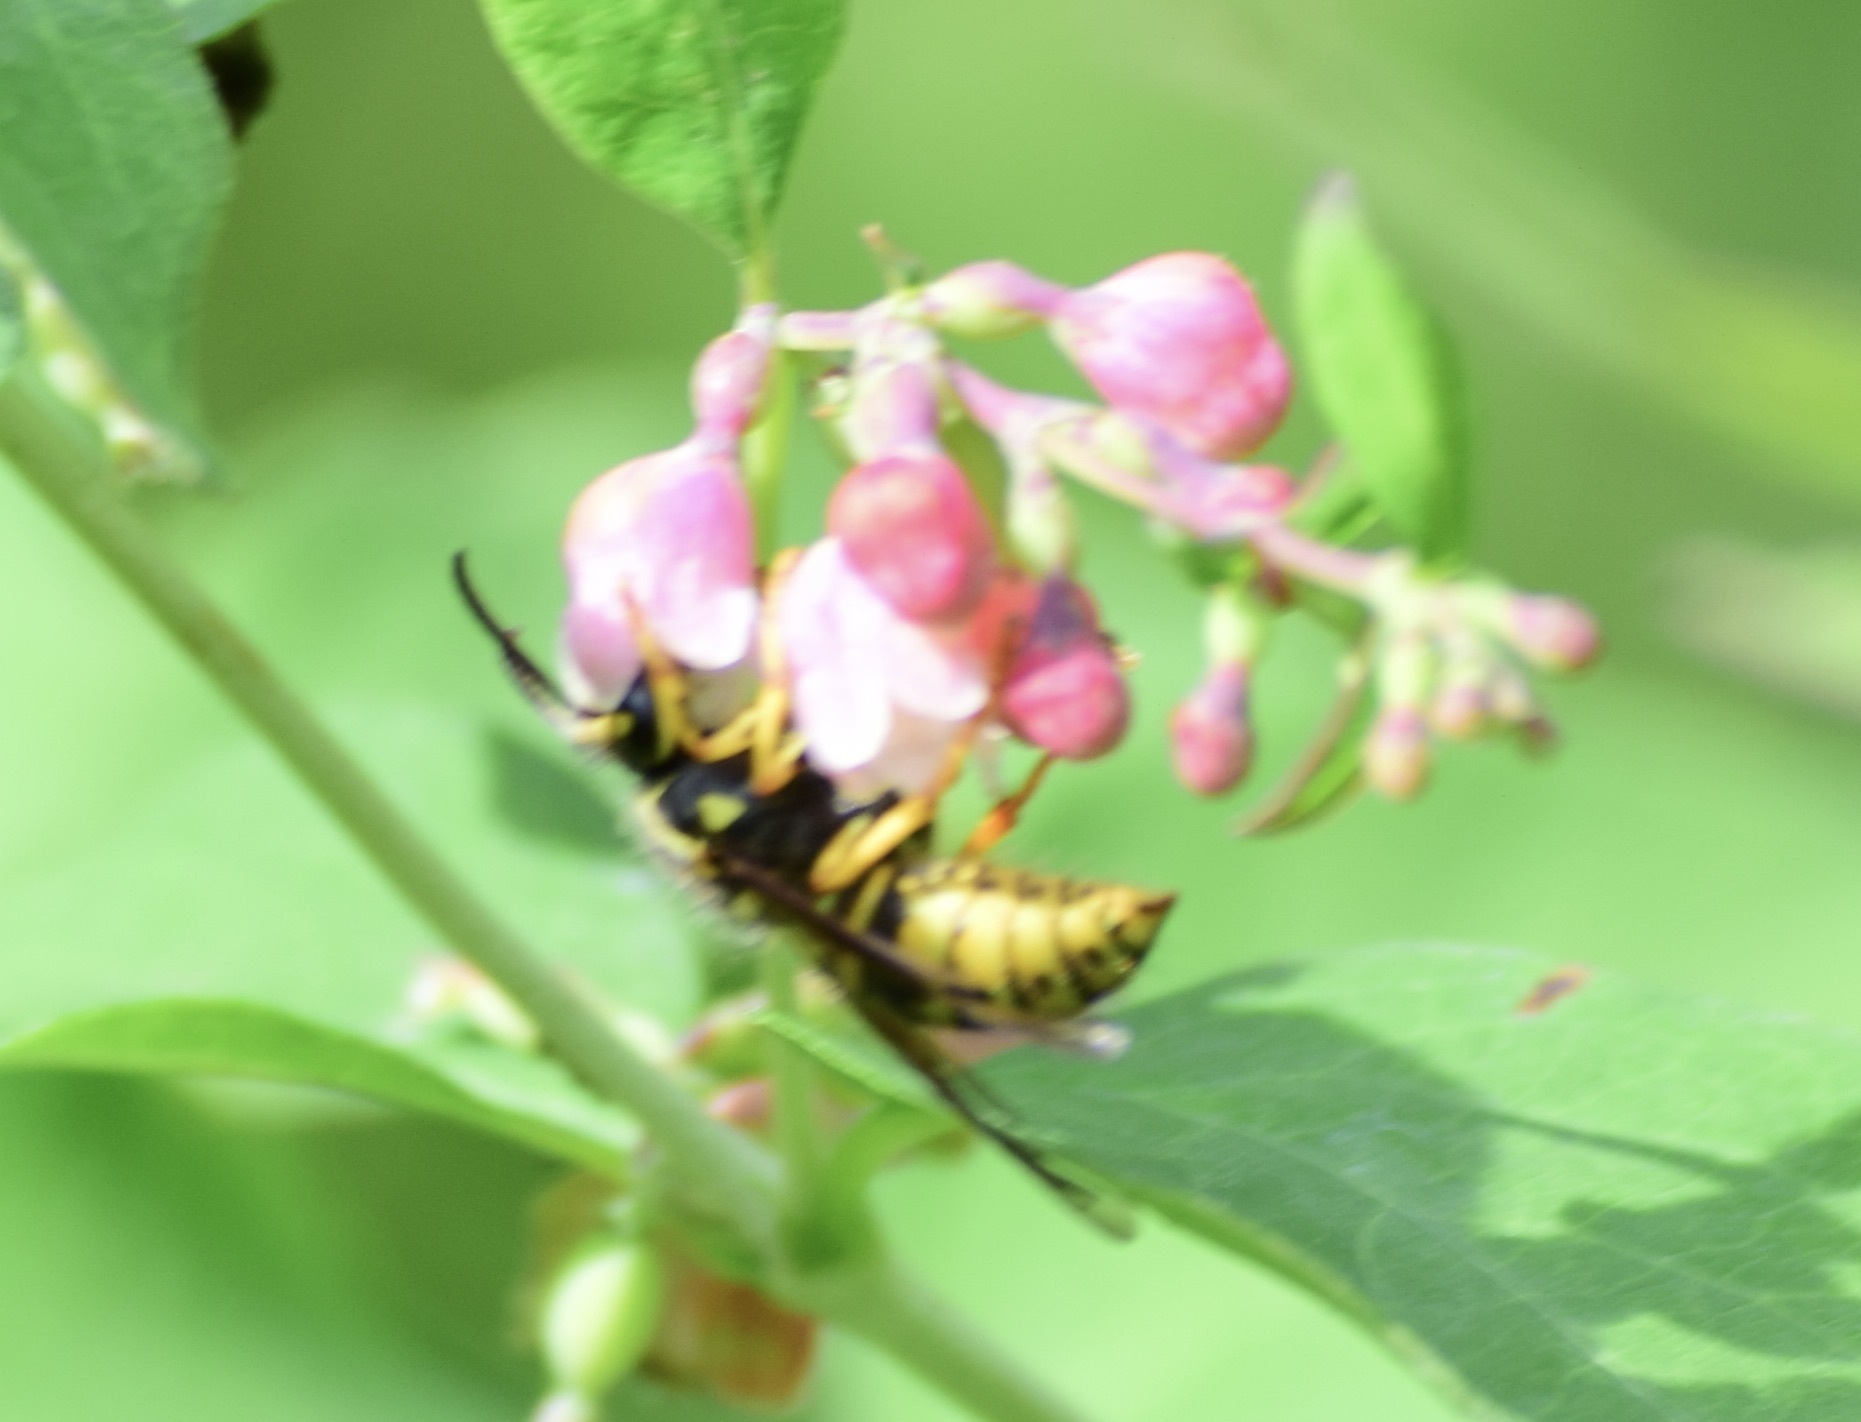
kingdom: Animalia
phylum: Arthropoda
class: Insecta
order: Hymenoptera
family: Vespidae
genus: Dolichovespula
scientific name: Dolichovespula arenaria
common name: Aerial yellowjacket
